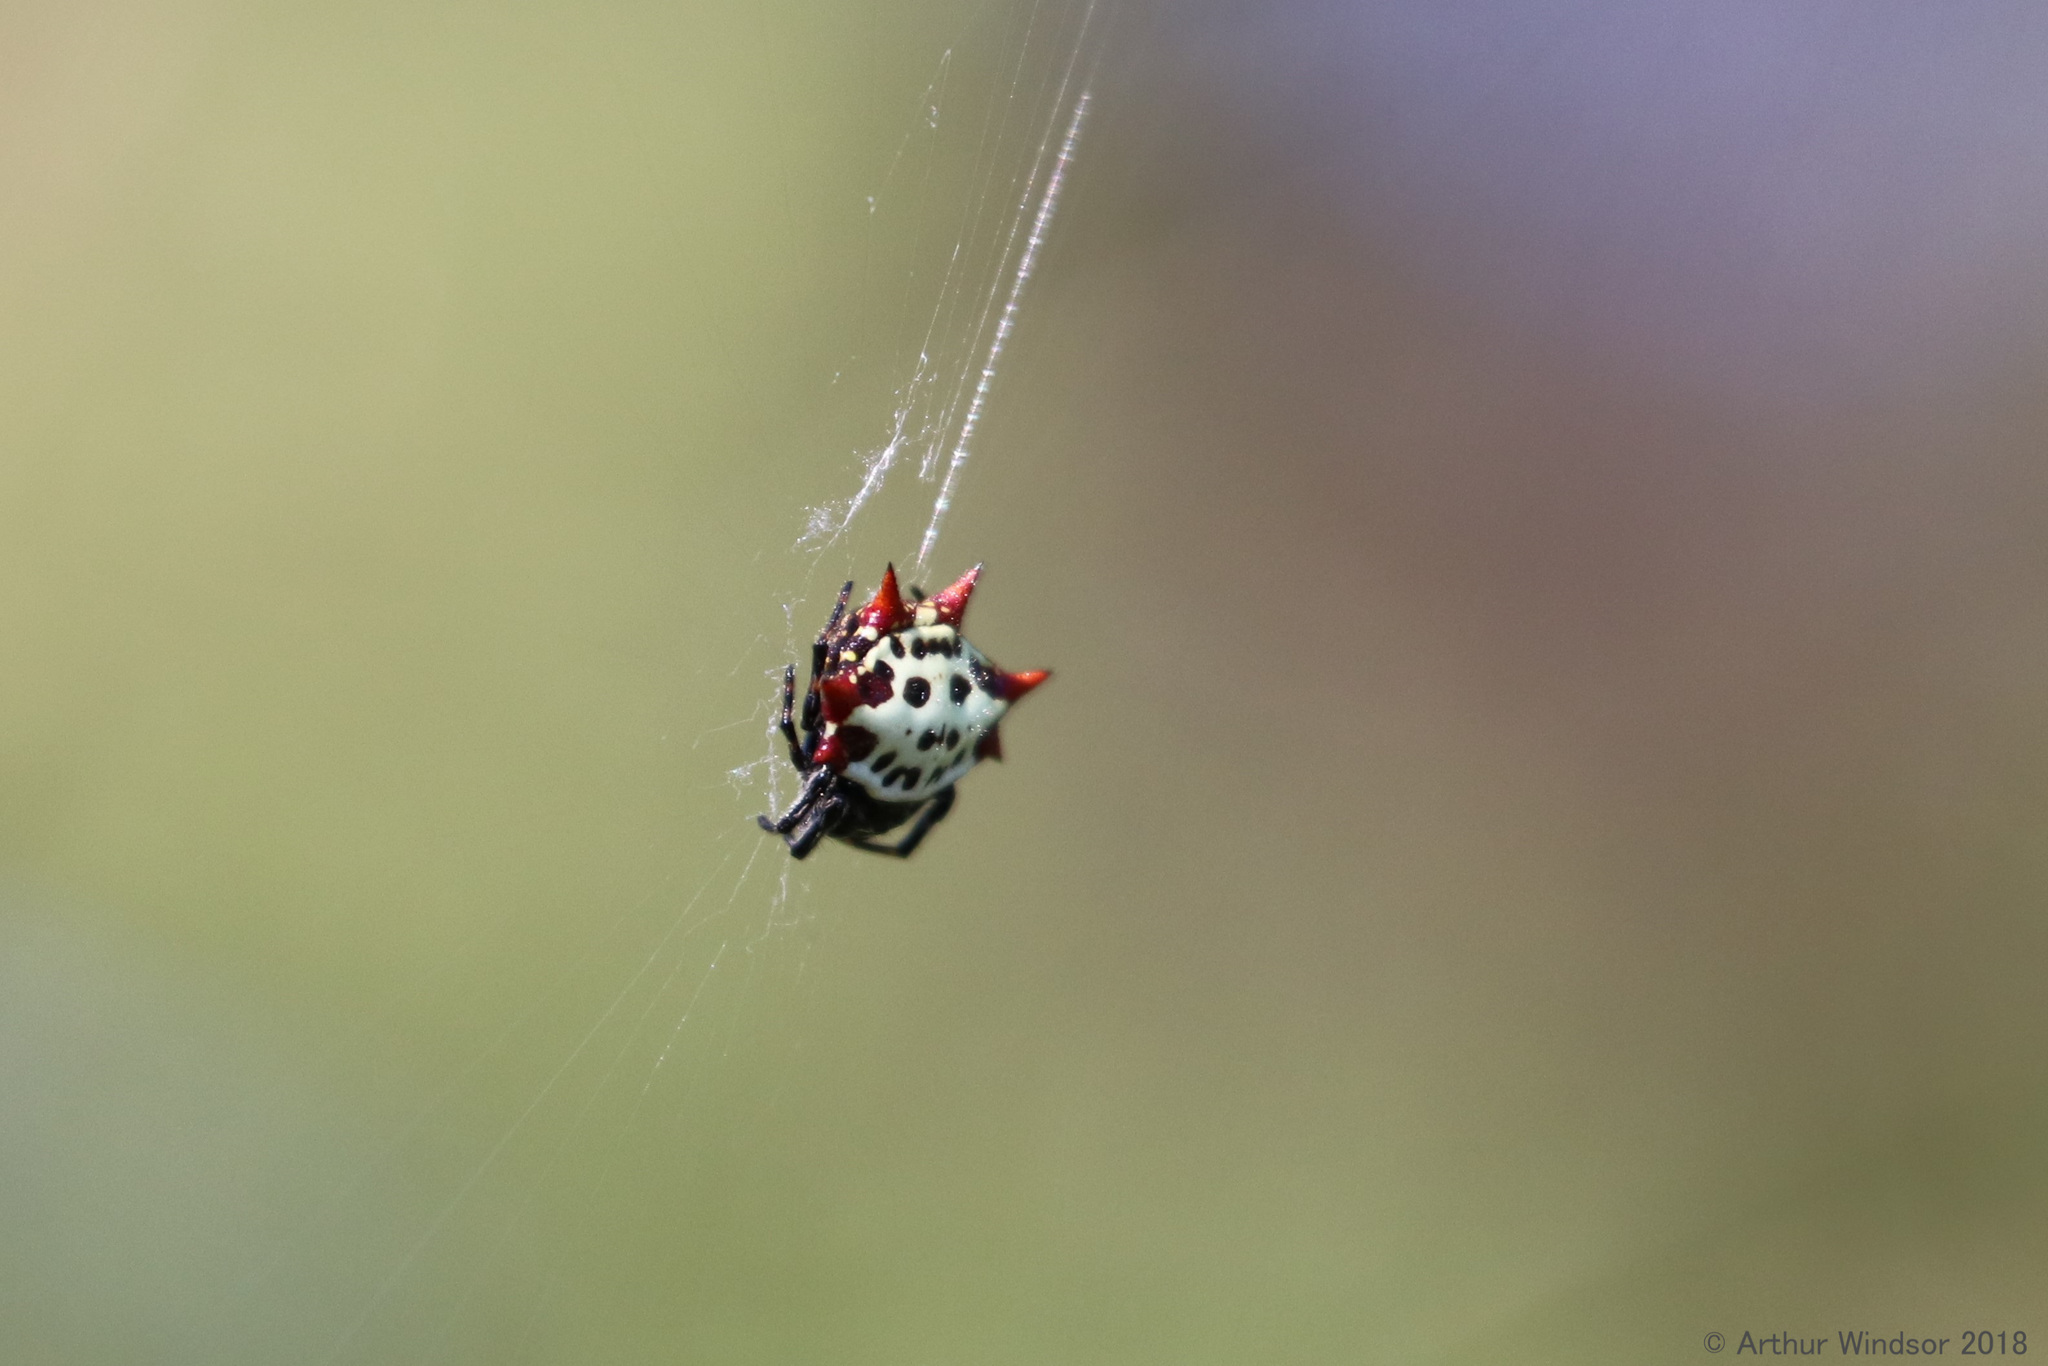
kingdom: Animalia
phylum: Arthropoda
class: Arachnida
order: Araneae
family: Araneidae
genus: Gasteracantha
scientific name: Gasteracantha cancriformis
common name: Orb weavers
